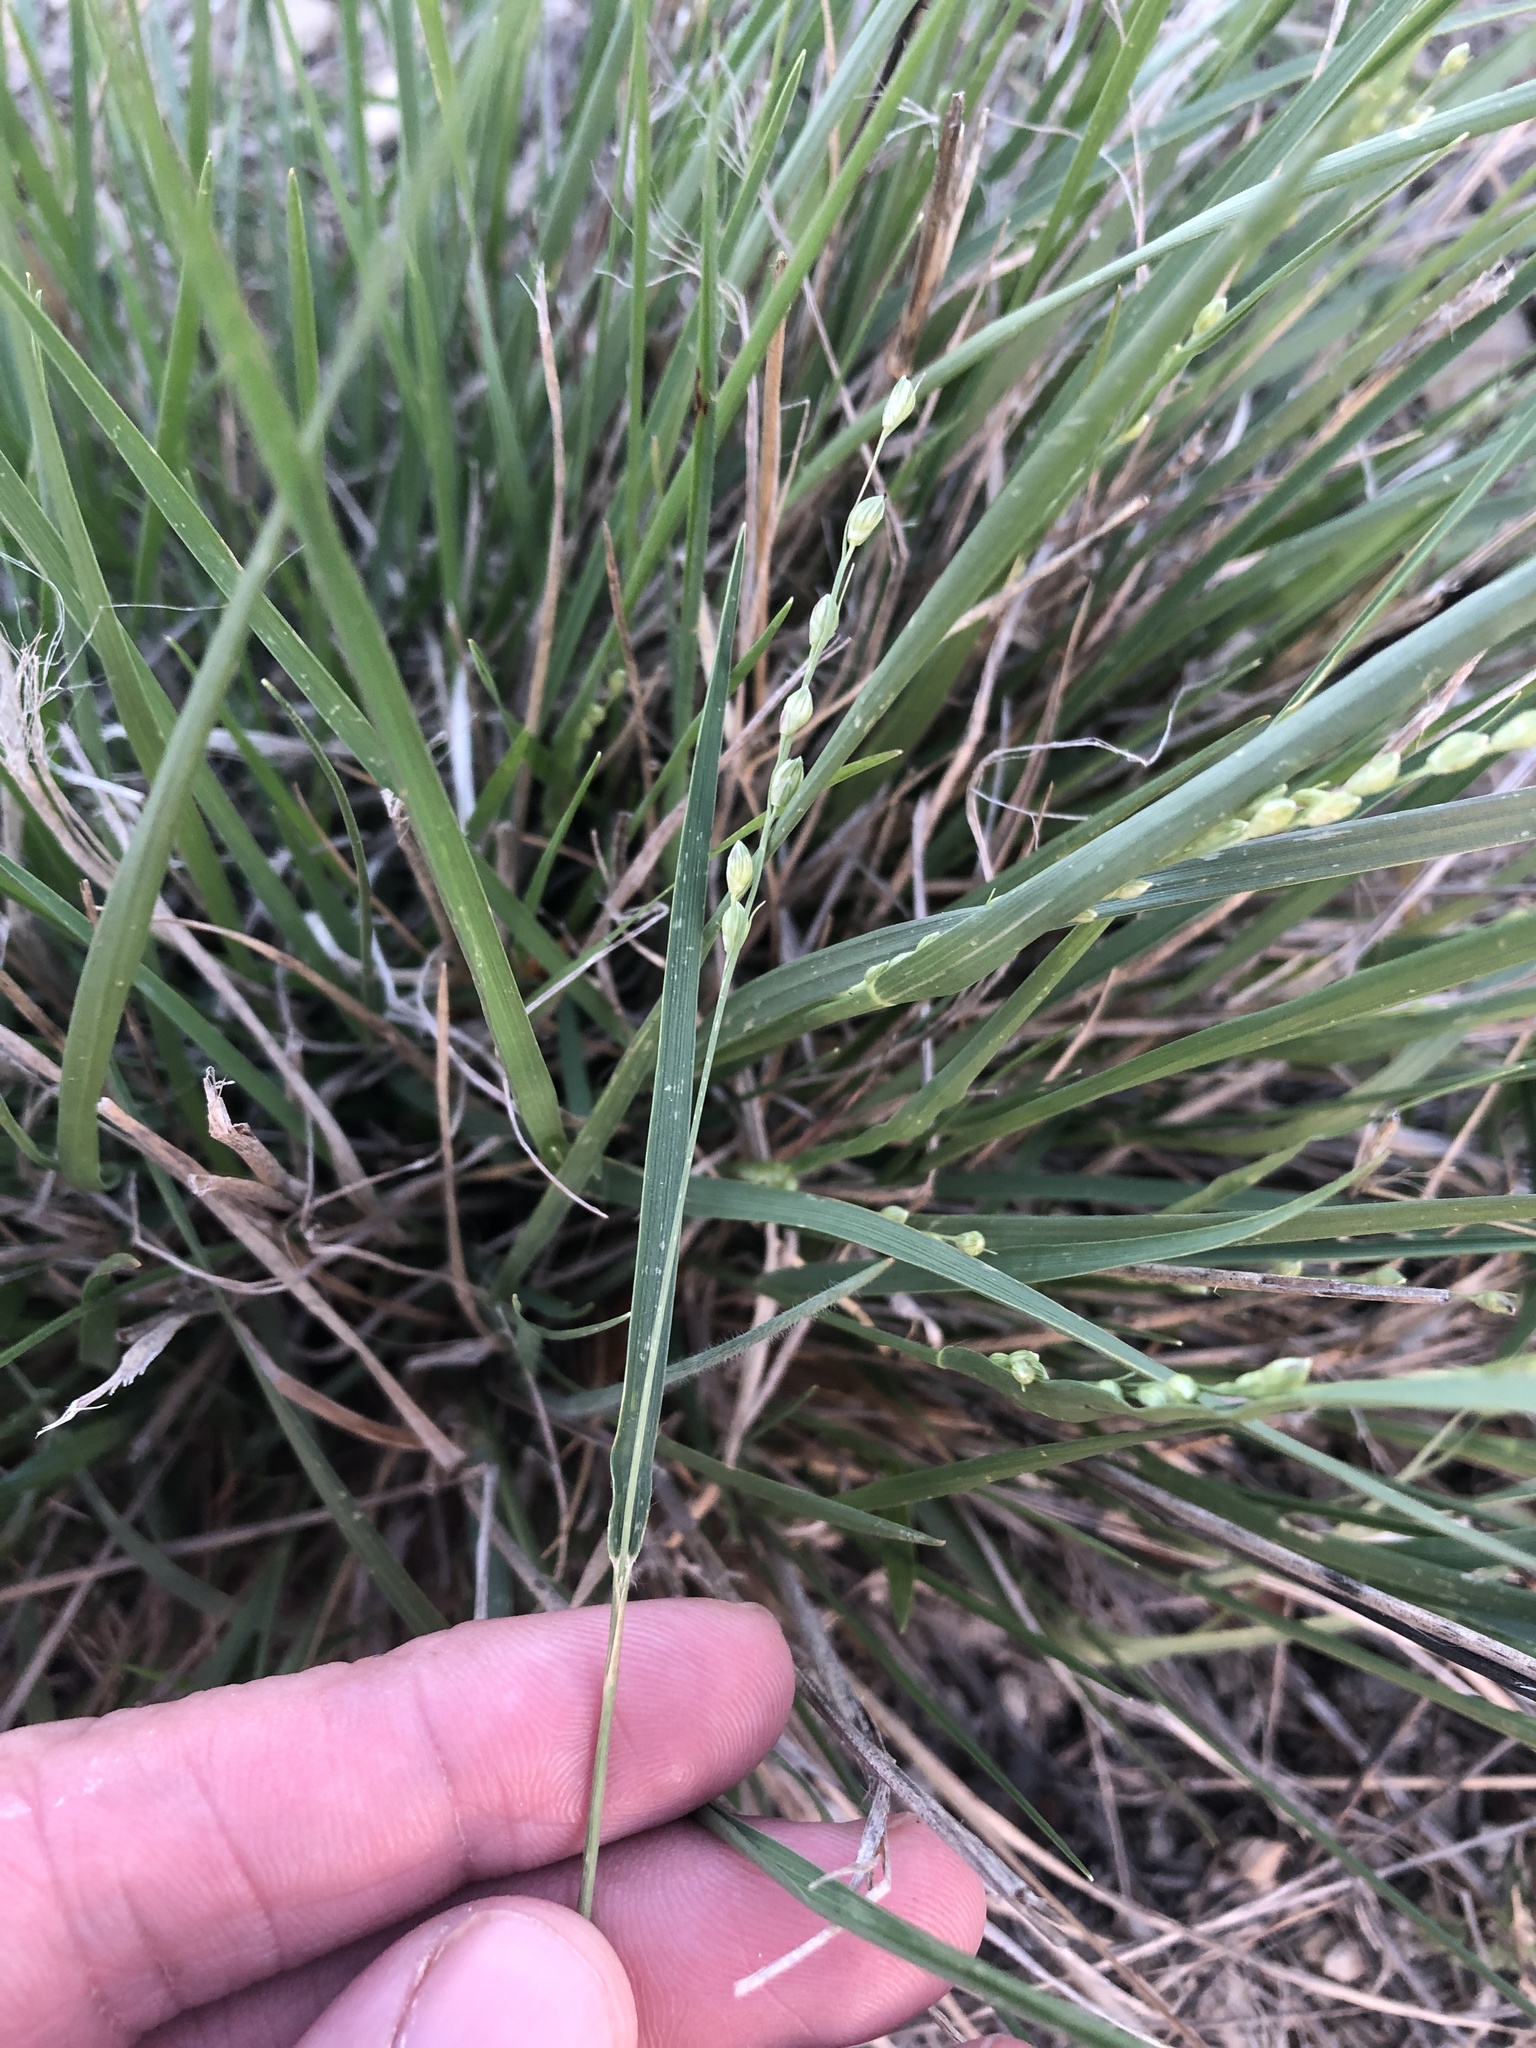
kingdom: Plantae
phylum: Tracheophyta
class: Liliopsida
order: Poales
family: Poaceae
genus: Setaria
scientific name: Setaria reverchonii
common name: Reverchon's bristle grass
